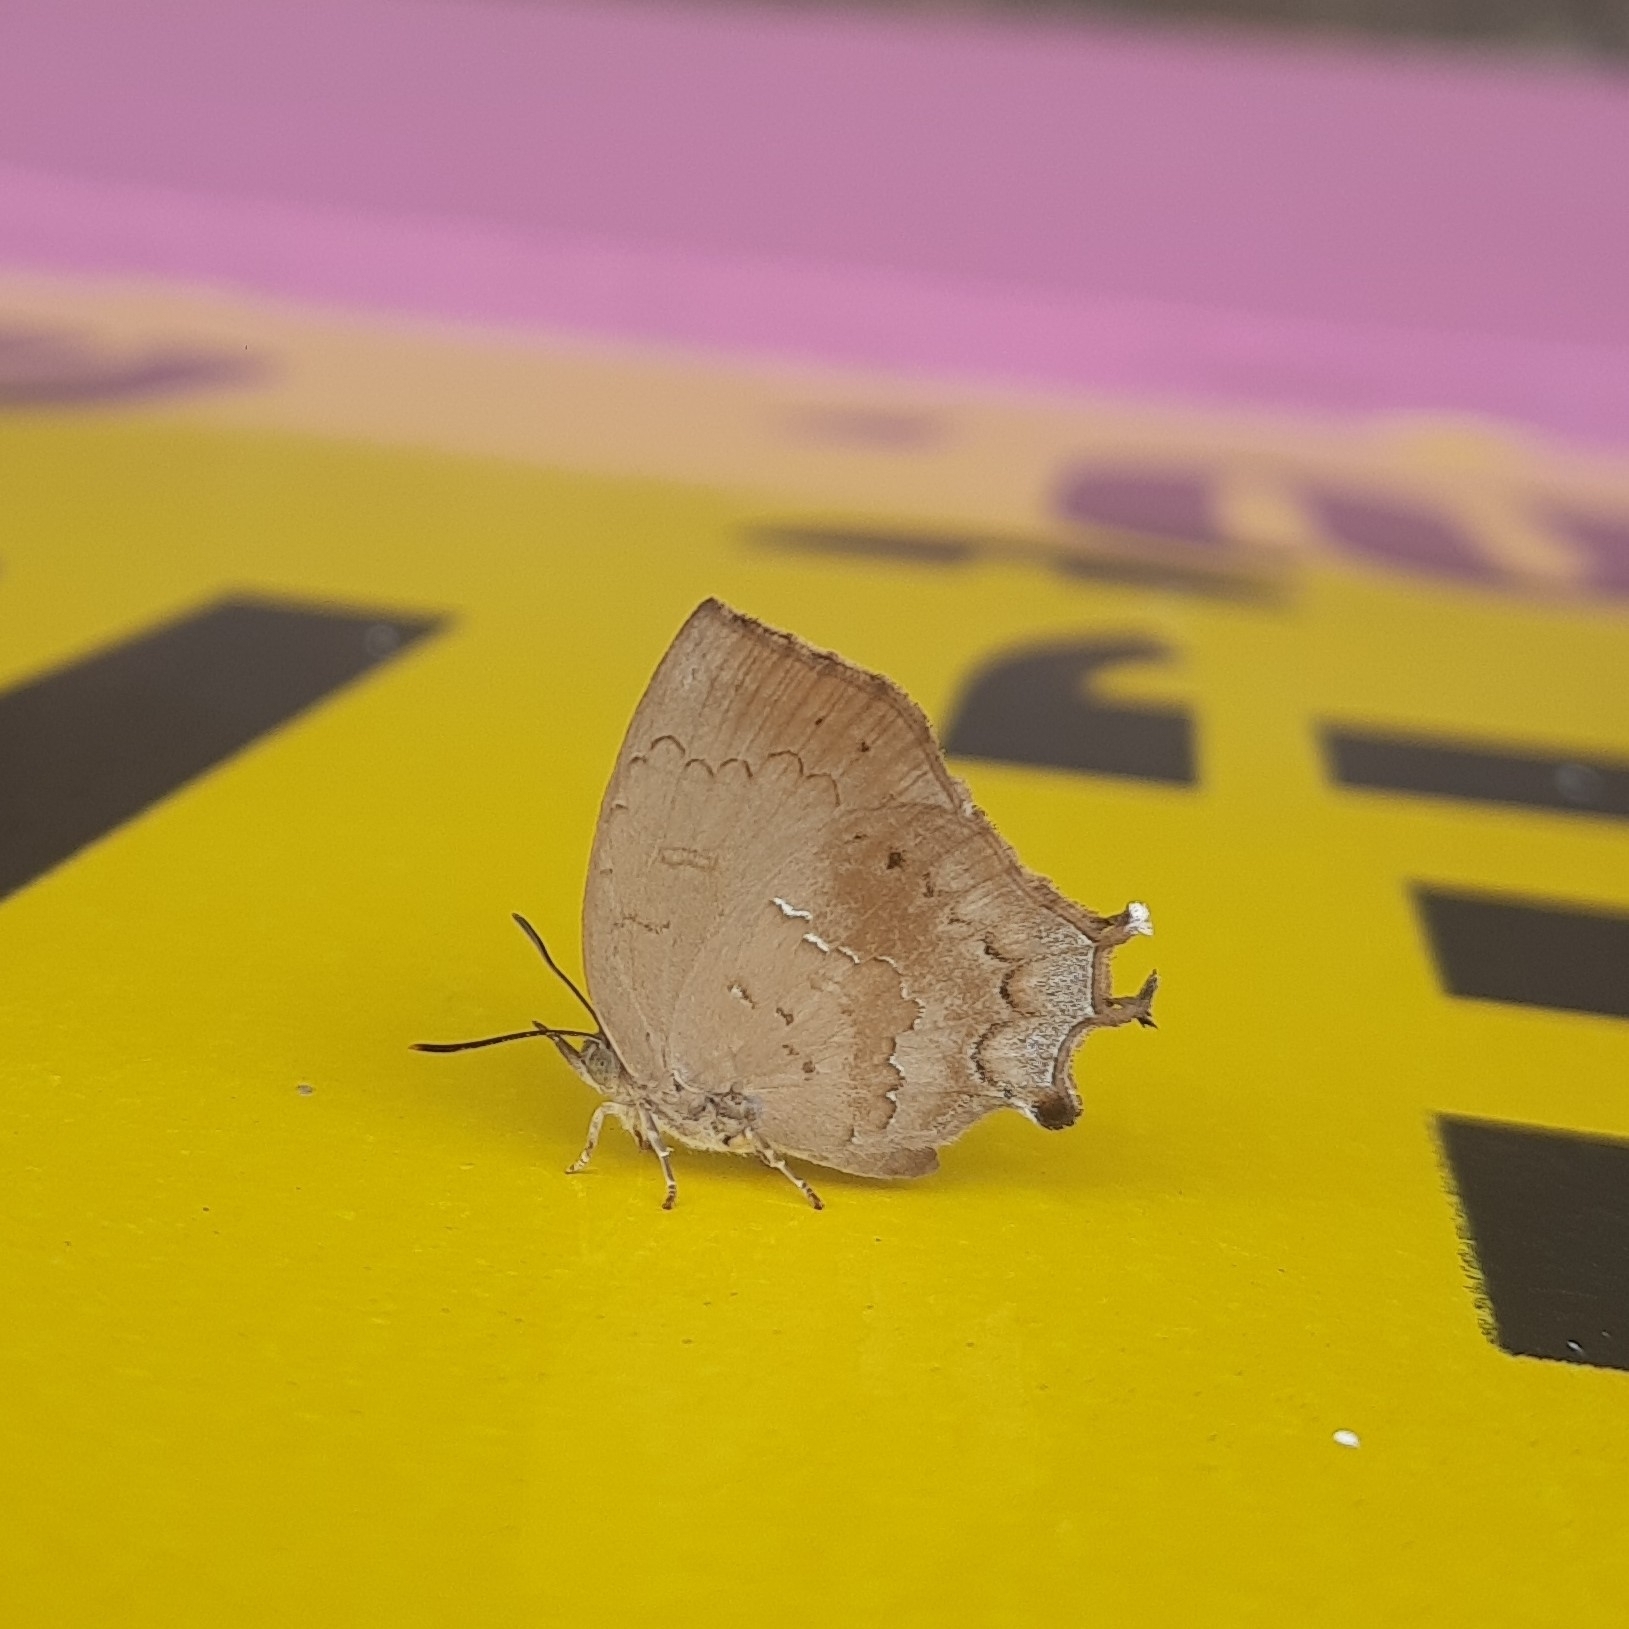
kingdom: Animalia
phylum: Arthropoda
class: Insecta
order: Lepidoptera
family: Lycaenidae
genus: Surendra
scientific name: Surendra quercetorum
